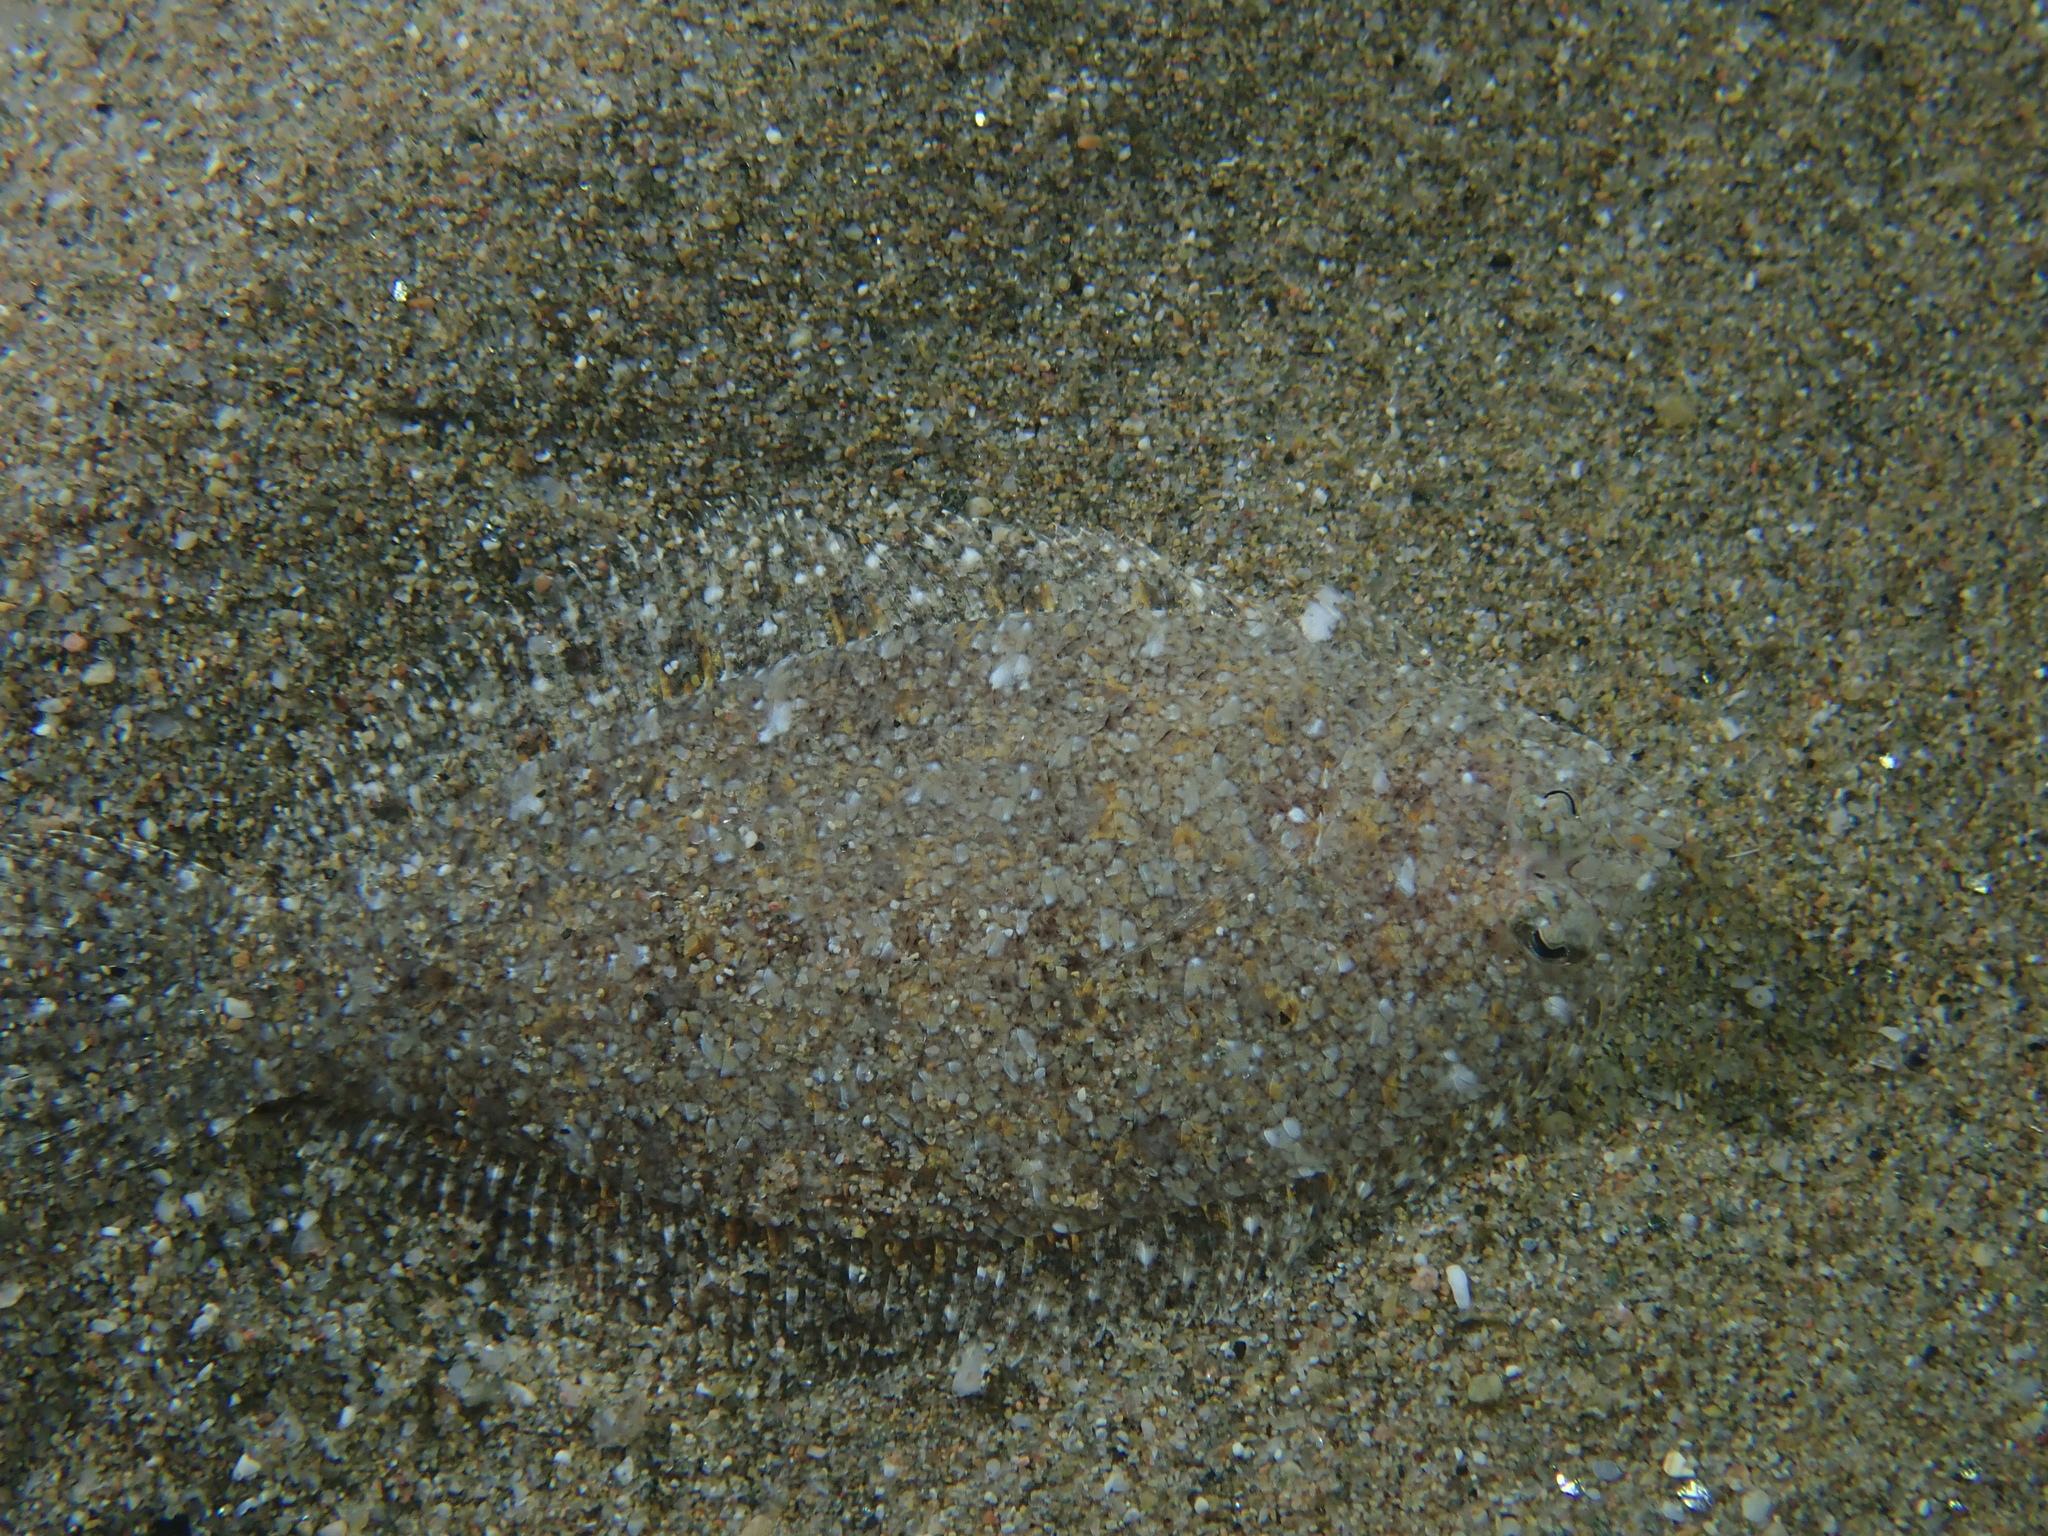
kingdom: Animalia
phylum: Chordata
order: Pleuronectiformes
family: Bothidae
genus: Arnoglossus
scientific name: Arnoglossus grohmanni
